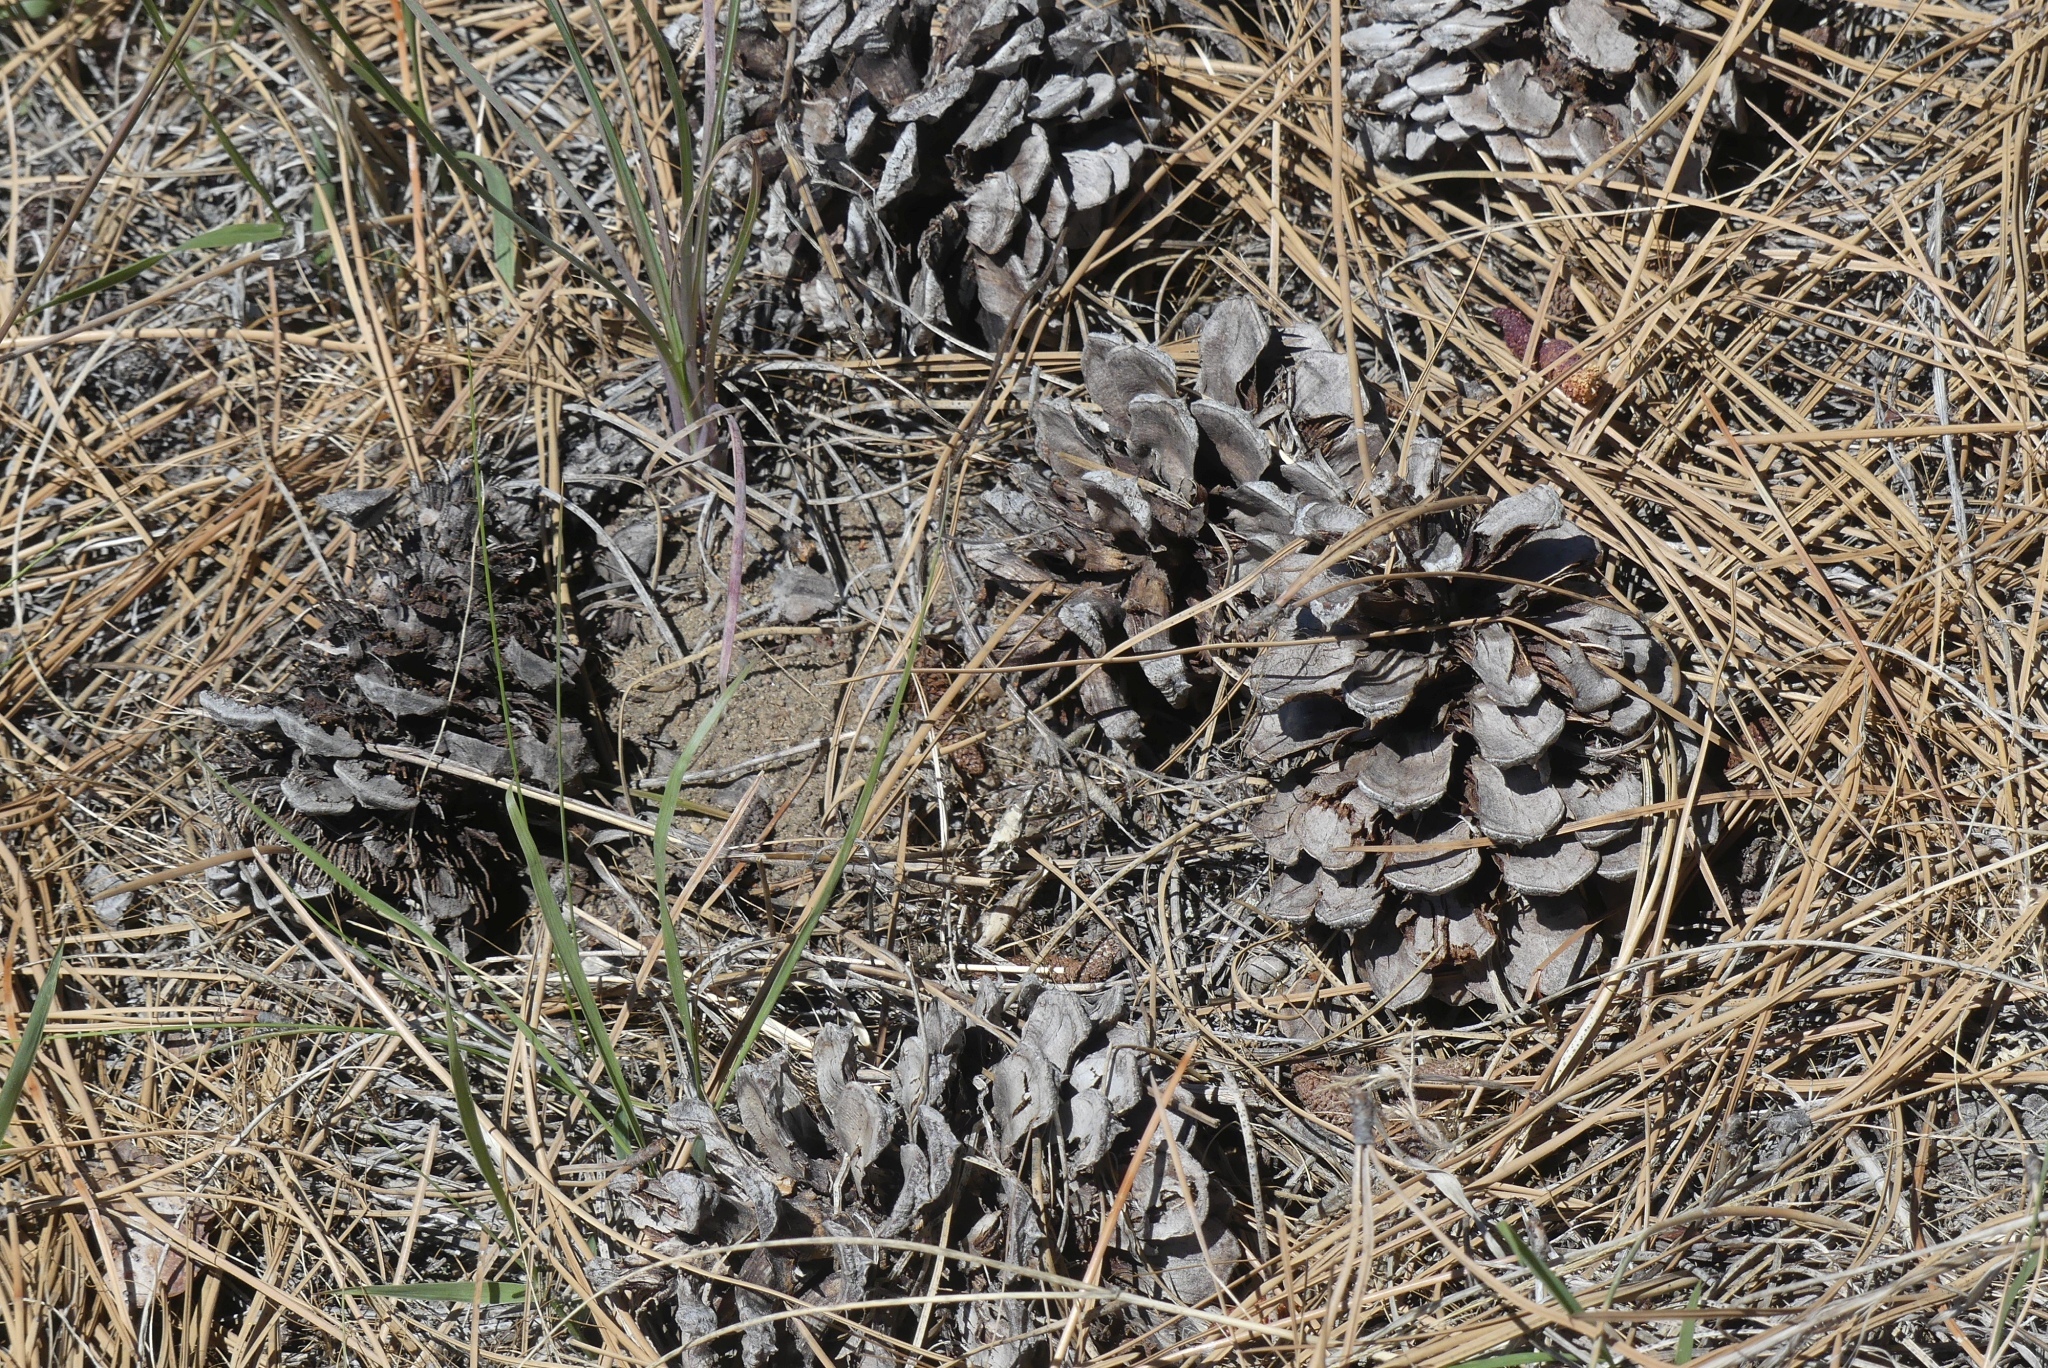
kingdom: Plantae
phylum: Tracheophyta
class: Pinopsida
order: Pinales
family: Pinaceae
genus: Pinus
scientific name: Pinus ponderosa
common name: Western yellow-pine
